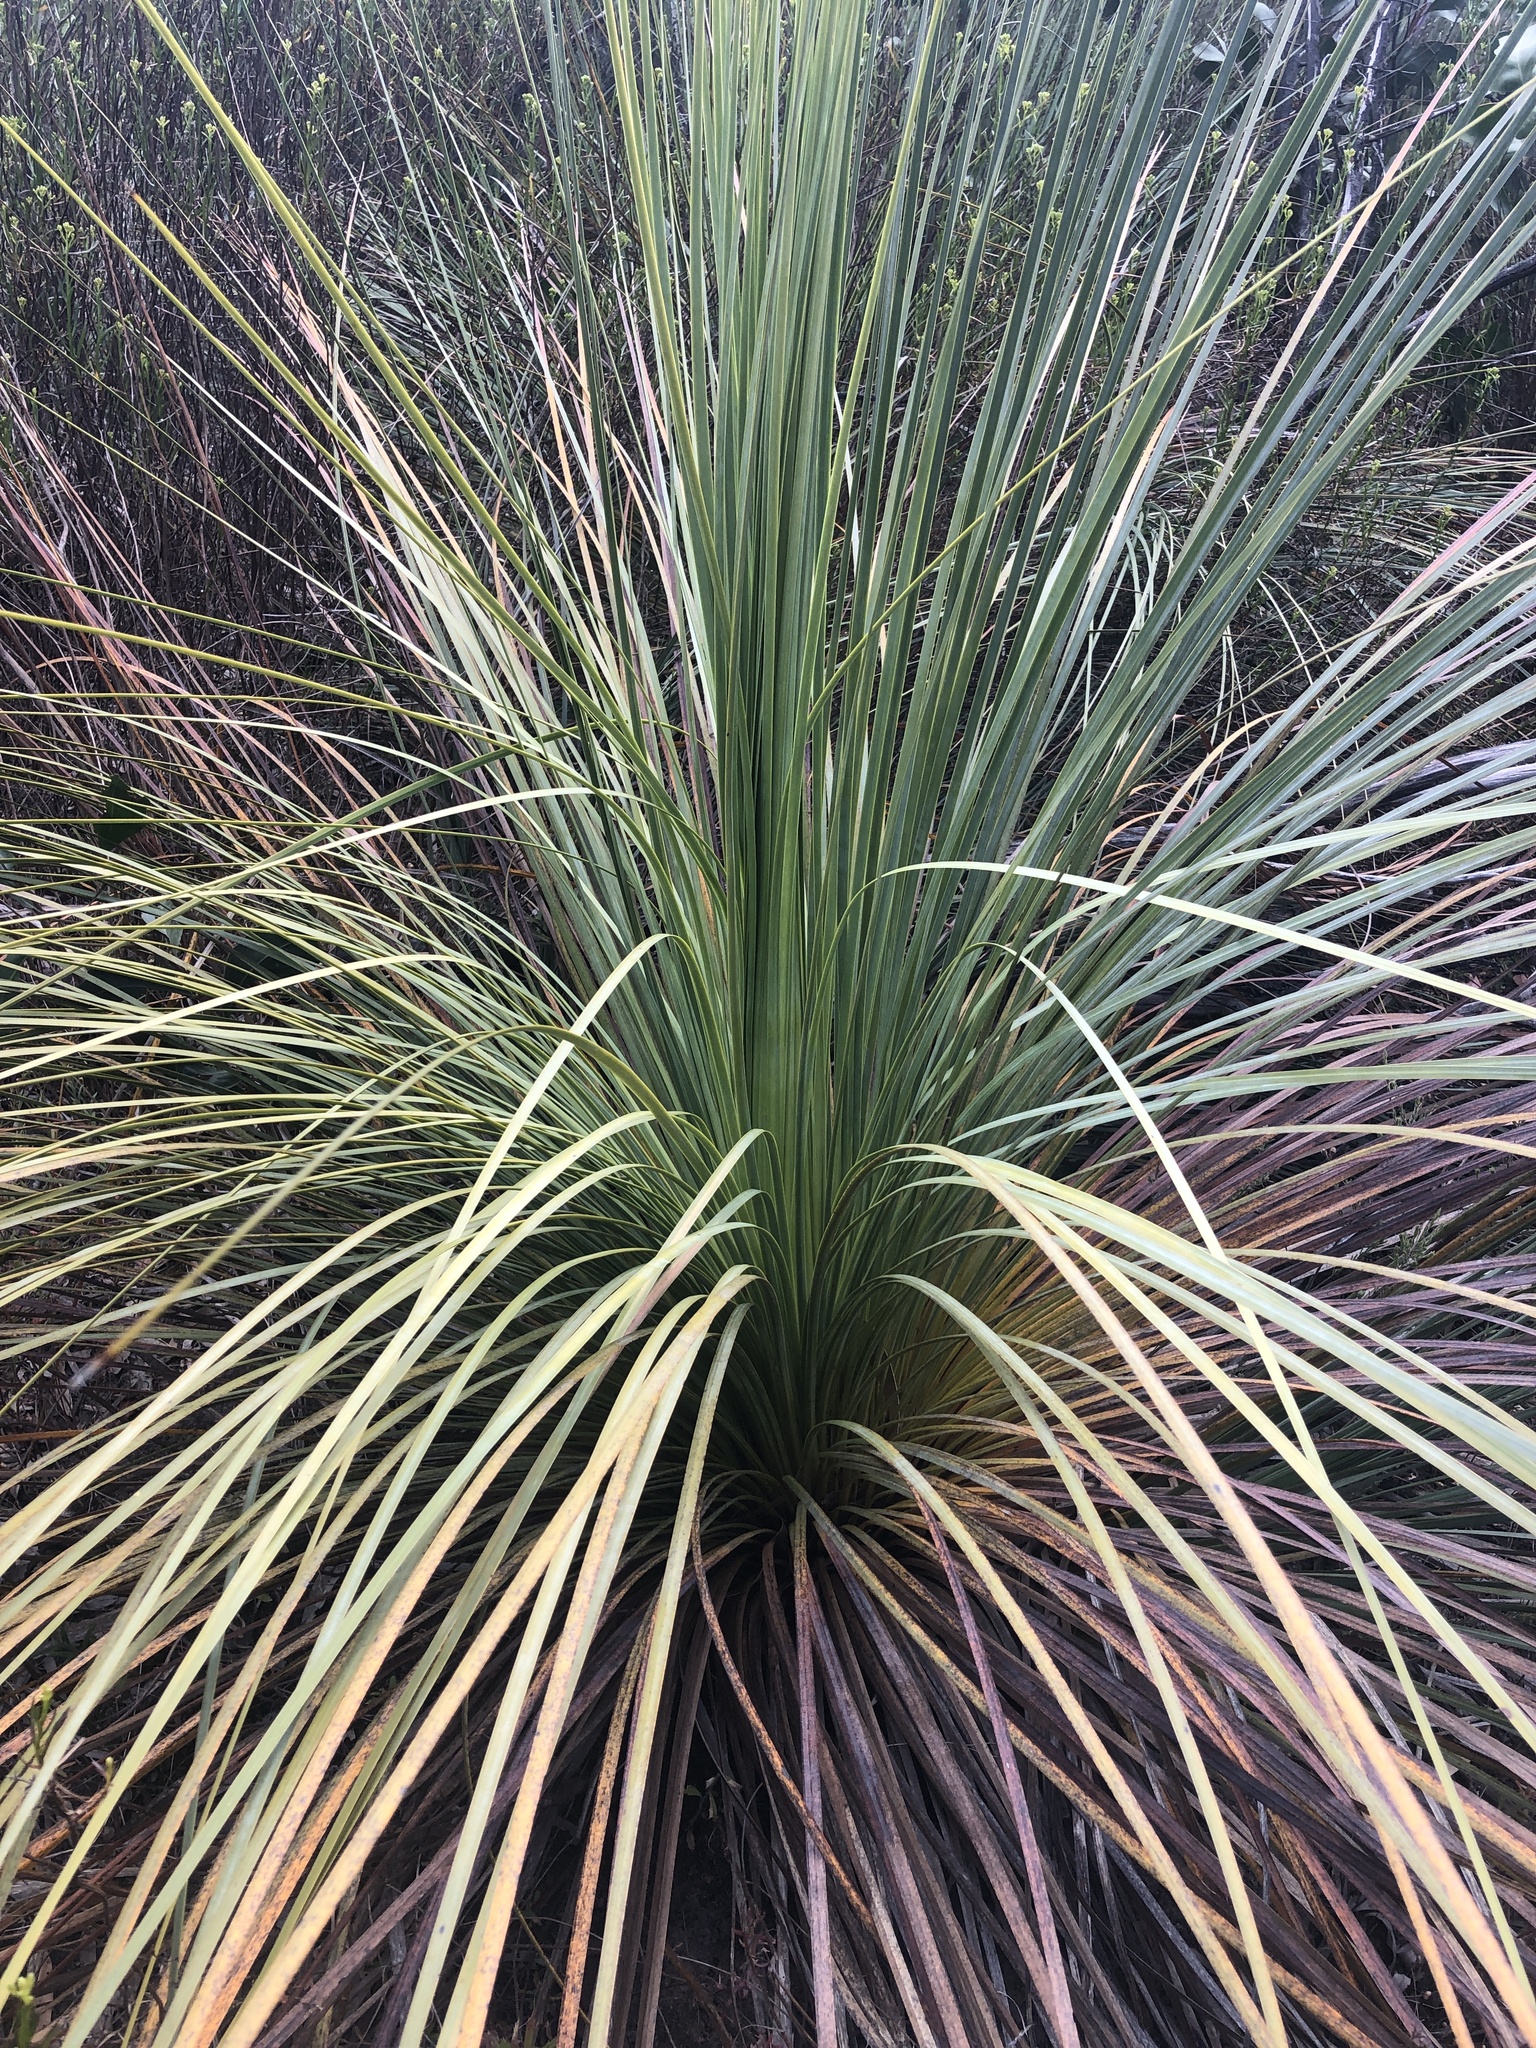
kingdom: Plantae
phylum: Tracheophyta
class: Liliopsida
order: Asparagales
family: Asphodelaceae
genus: Xanthorrhoea
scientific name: Xanthorrhoea semiplana
